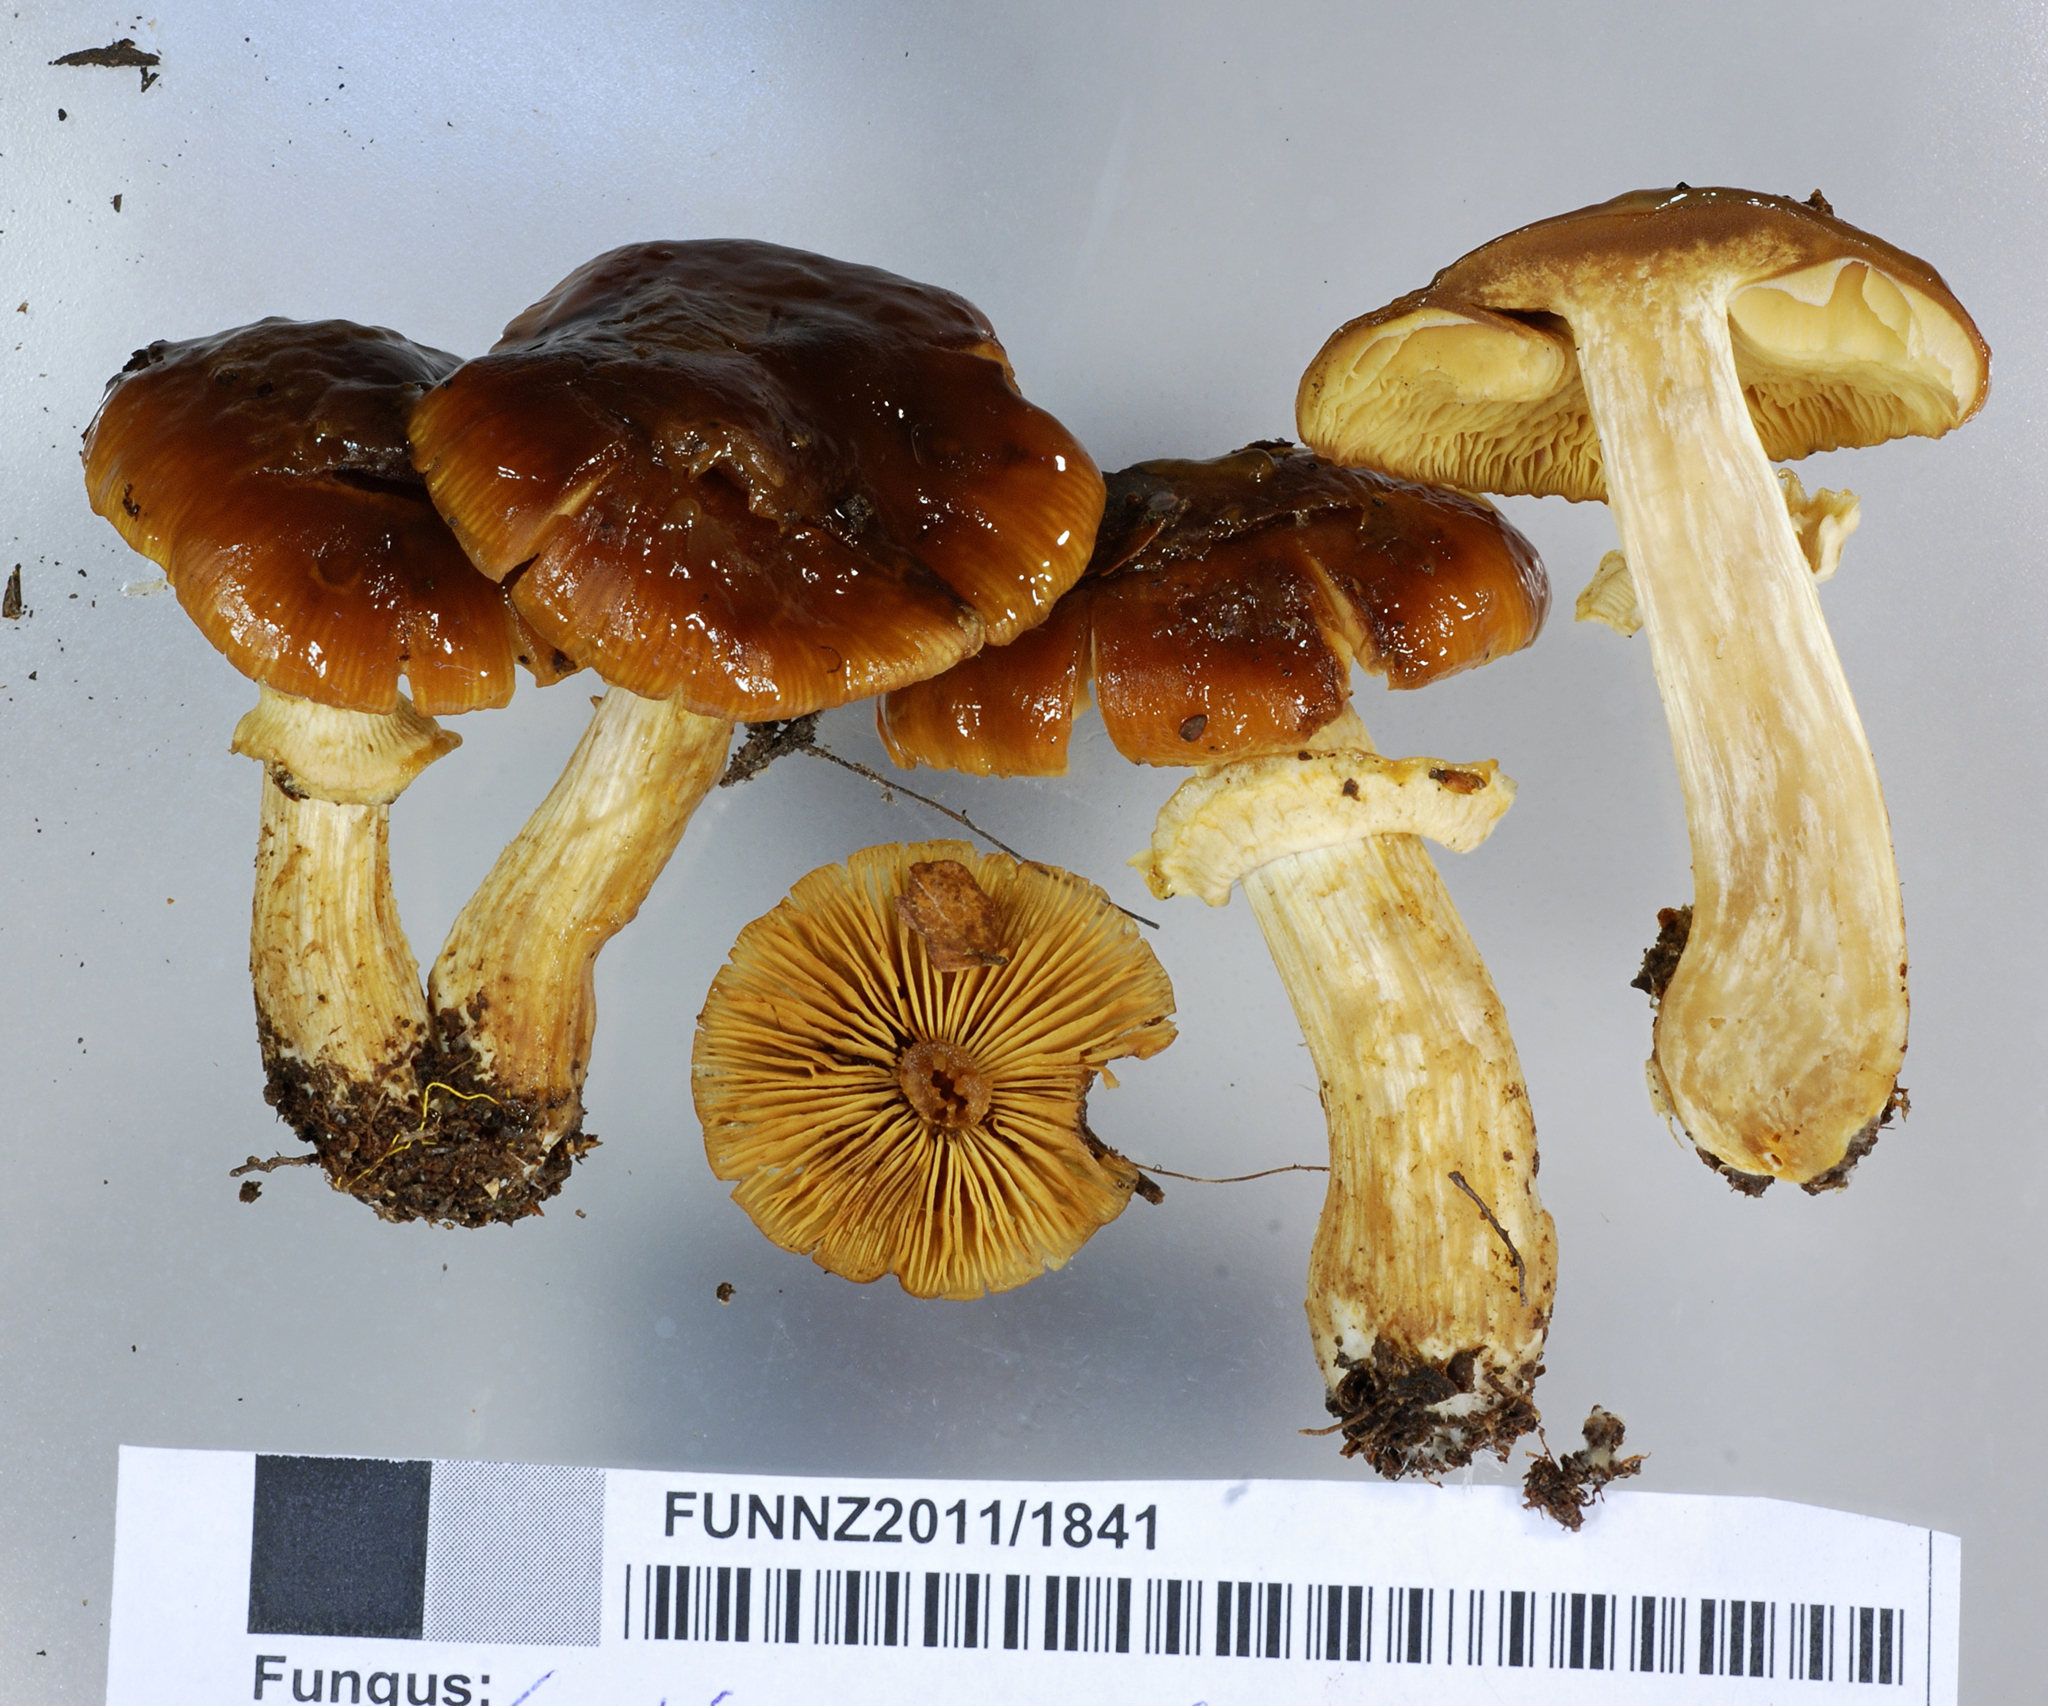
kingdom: Fungi
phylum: Basidiomycota
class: Agaricomycetes
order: Agaricales
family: Cortinariaceae
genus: Cortinarius
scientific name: Cortinarius subcastanellus
